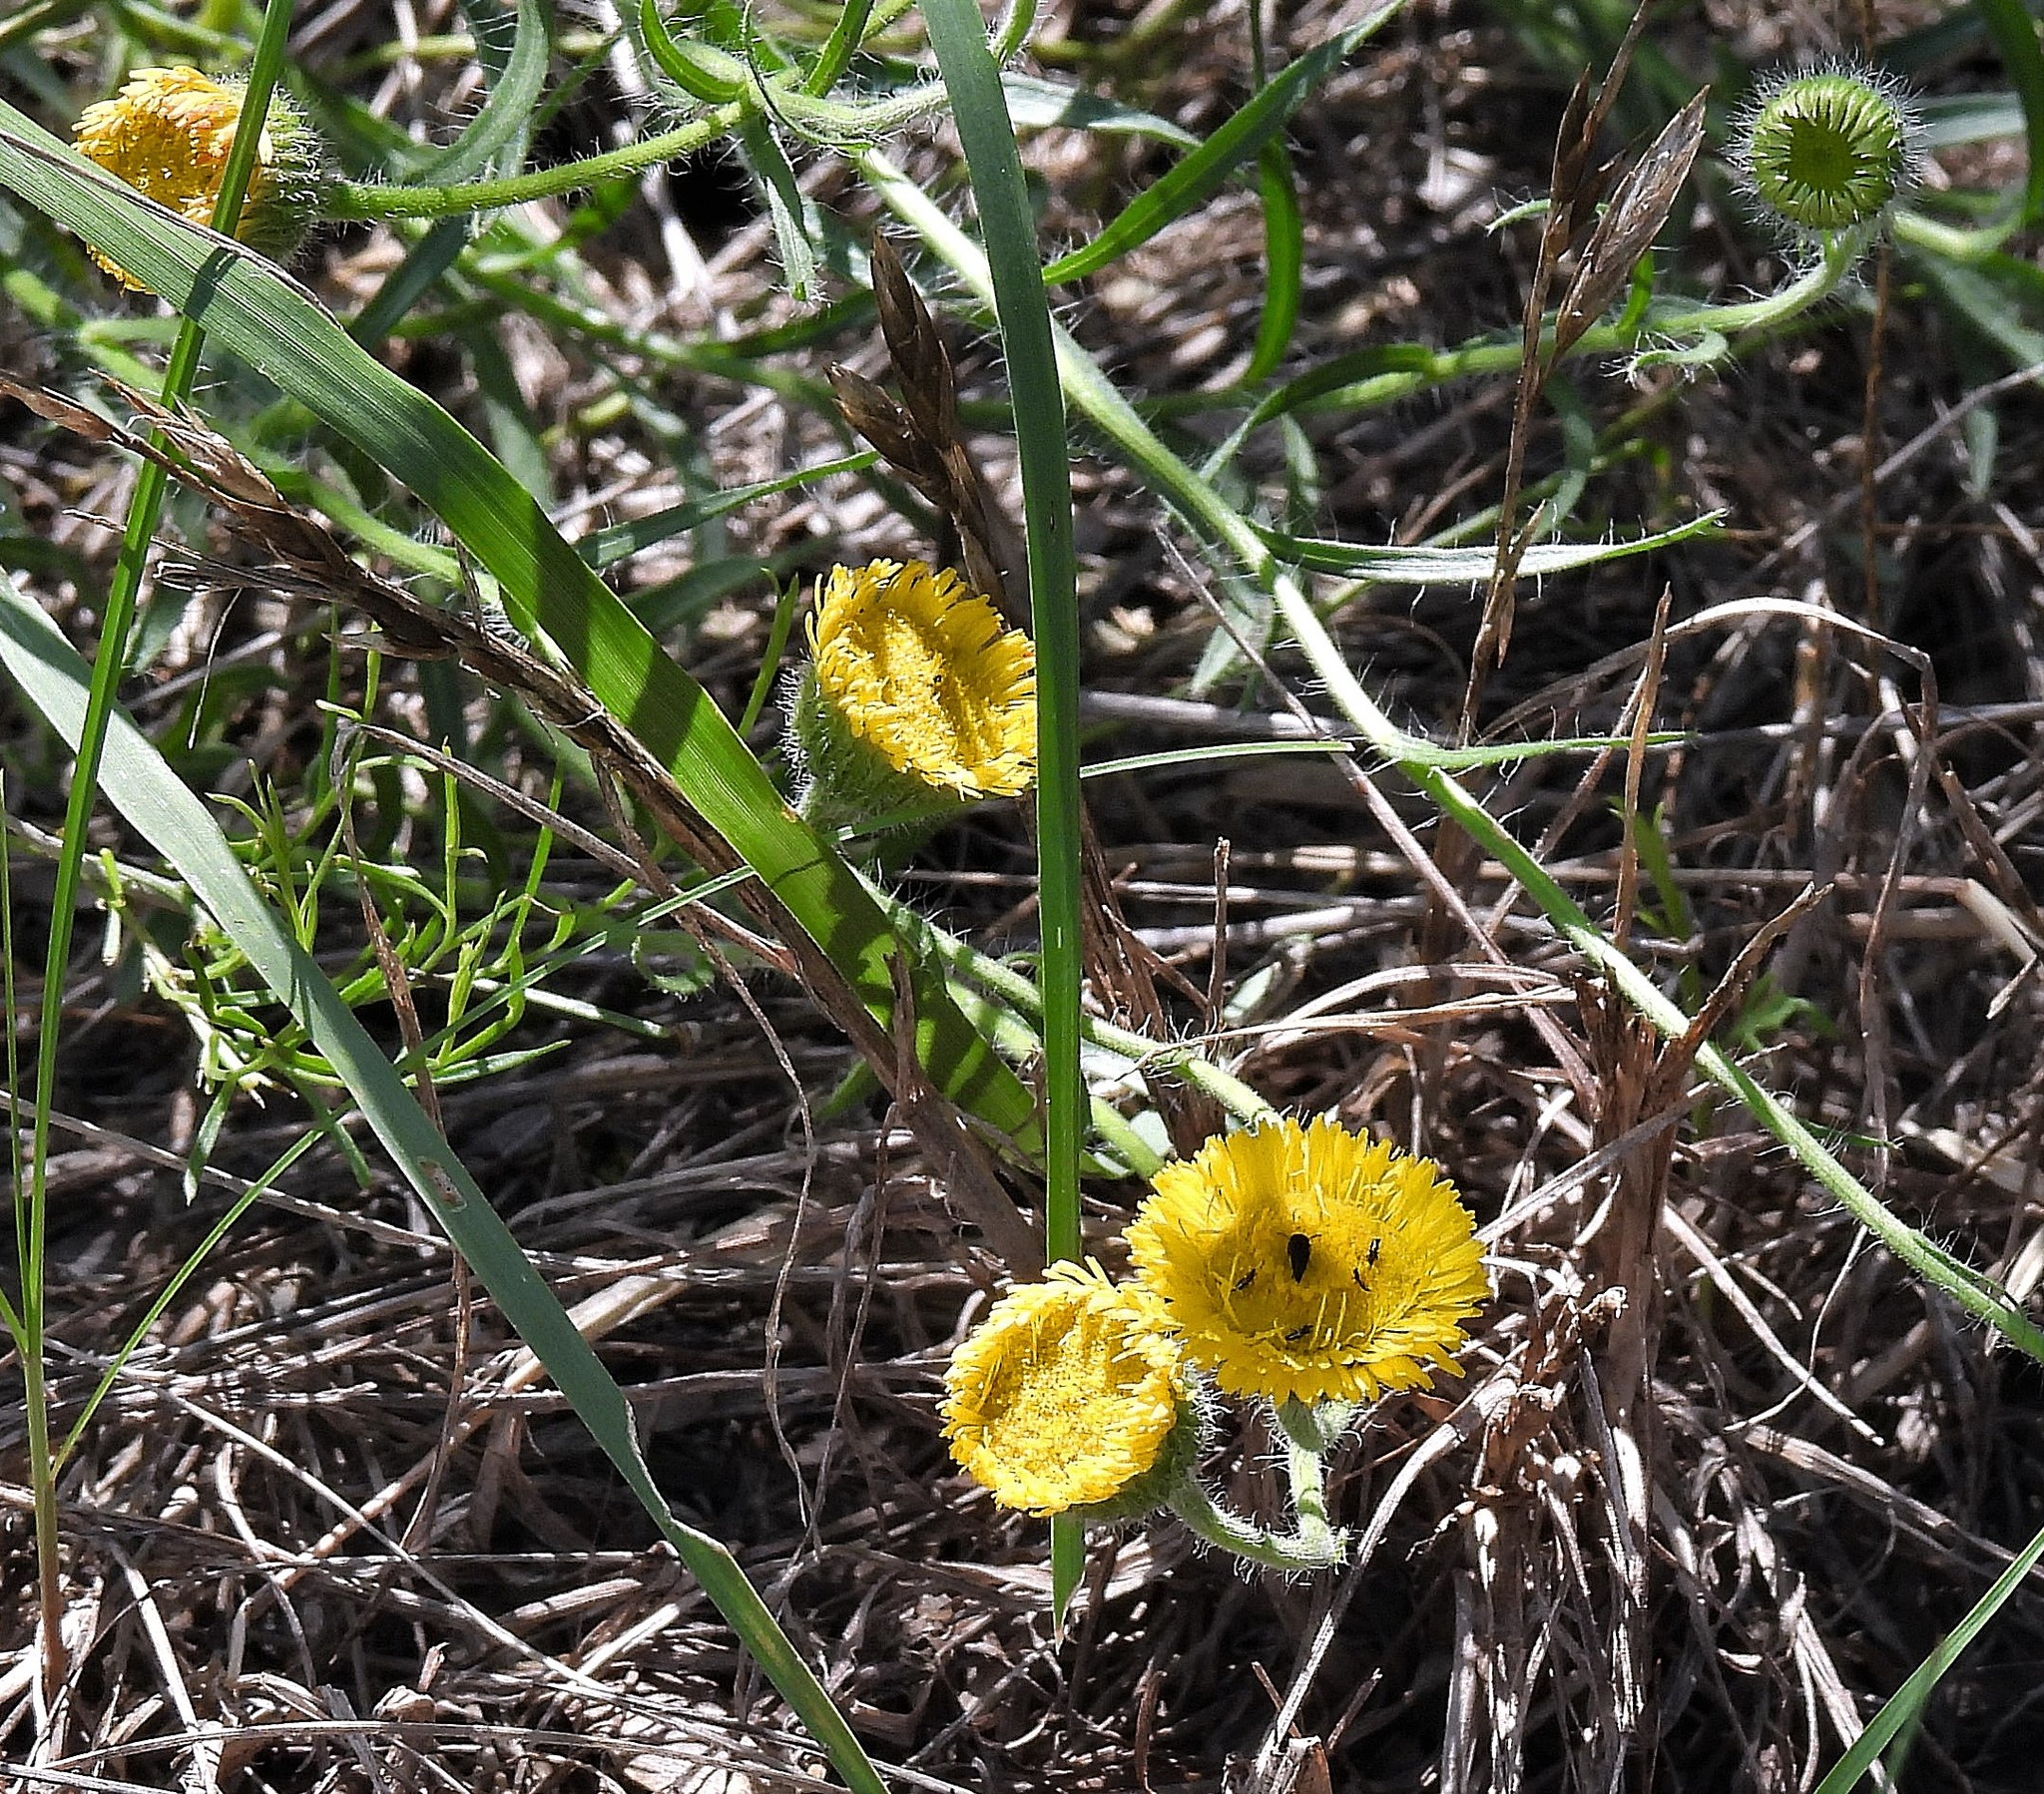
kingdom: Plantae
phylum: Tracheophyta
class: Magnoliopsida
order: Asterales
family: Asteraceae
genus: Hysterionica
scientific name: Hysterionica jasionoides
